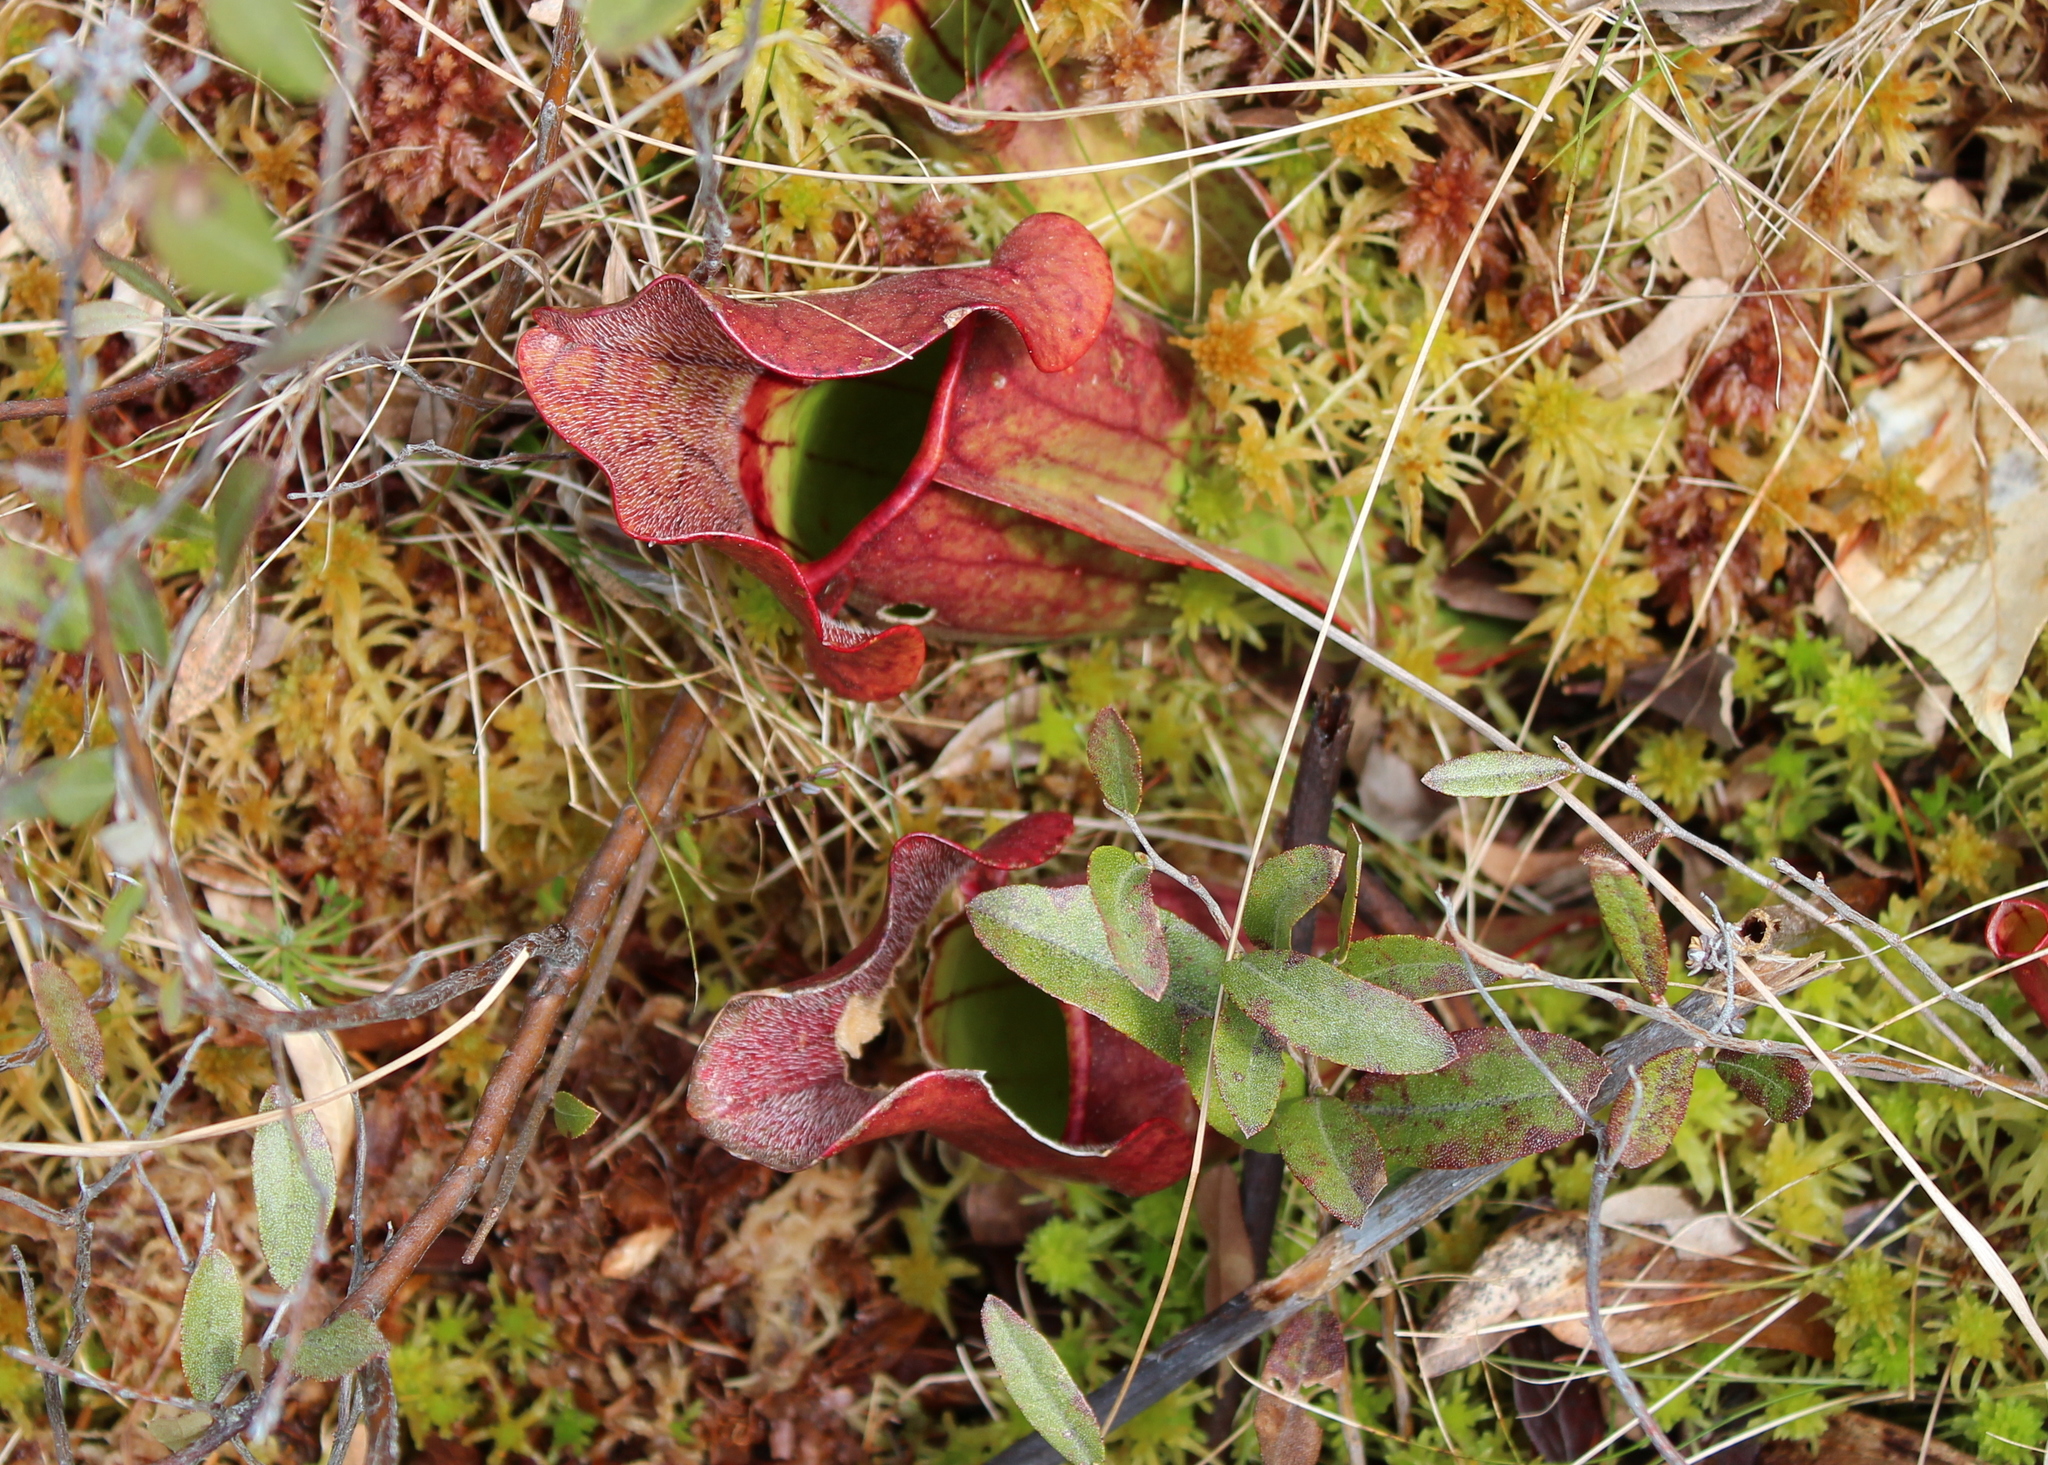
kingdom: Plantae
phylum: Tracheophyta
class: Magnoliopsida
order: Ericales
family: Sarraceniaceae
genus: Sarracenia
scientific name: Sarracenia purpurea
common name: Pitcherplant
